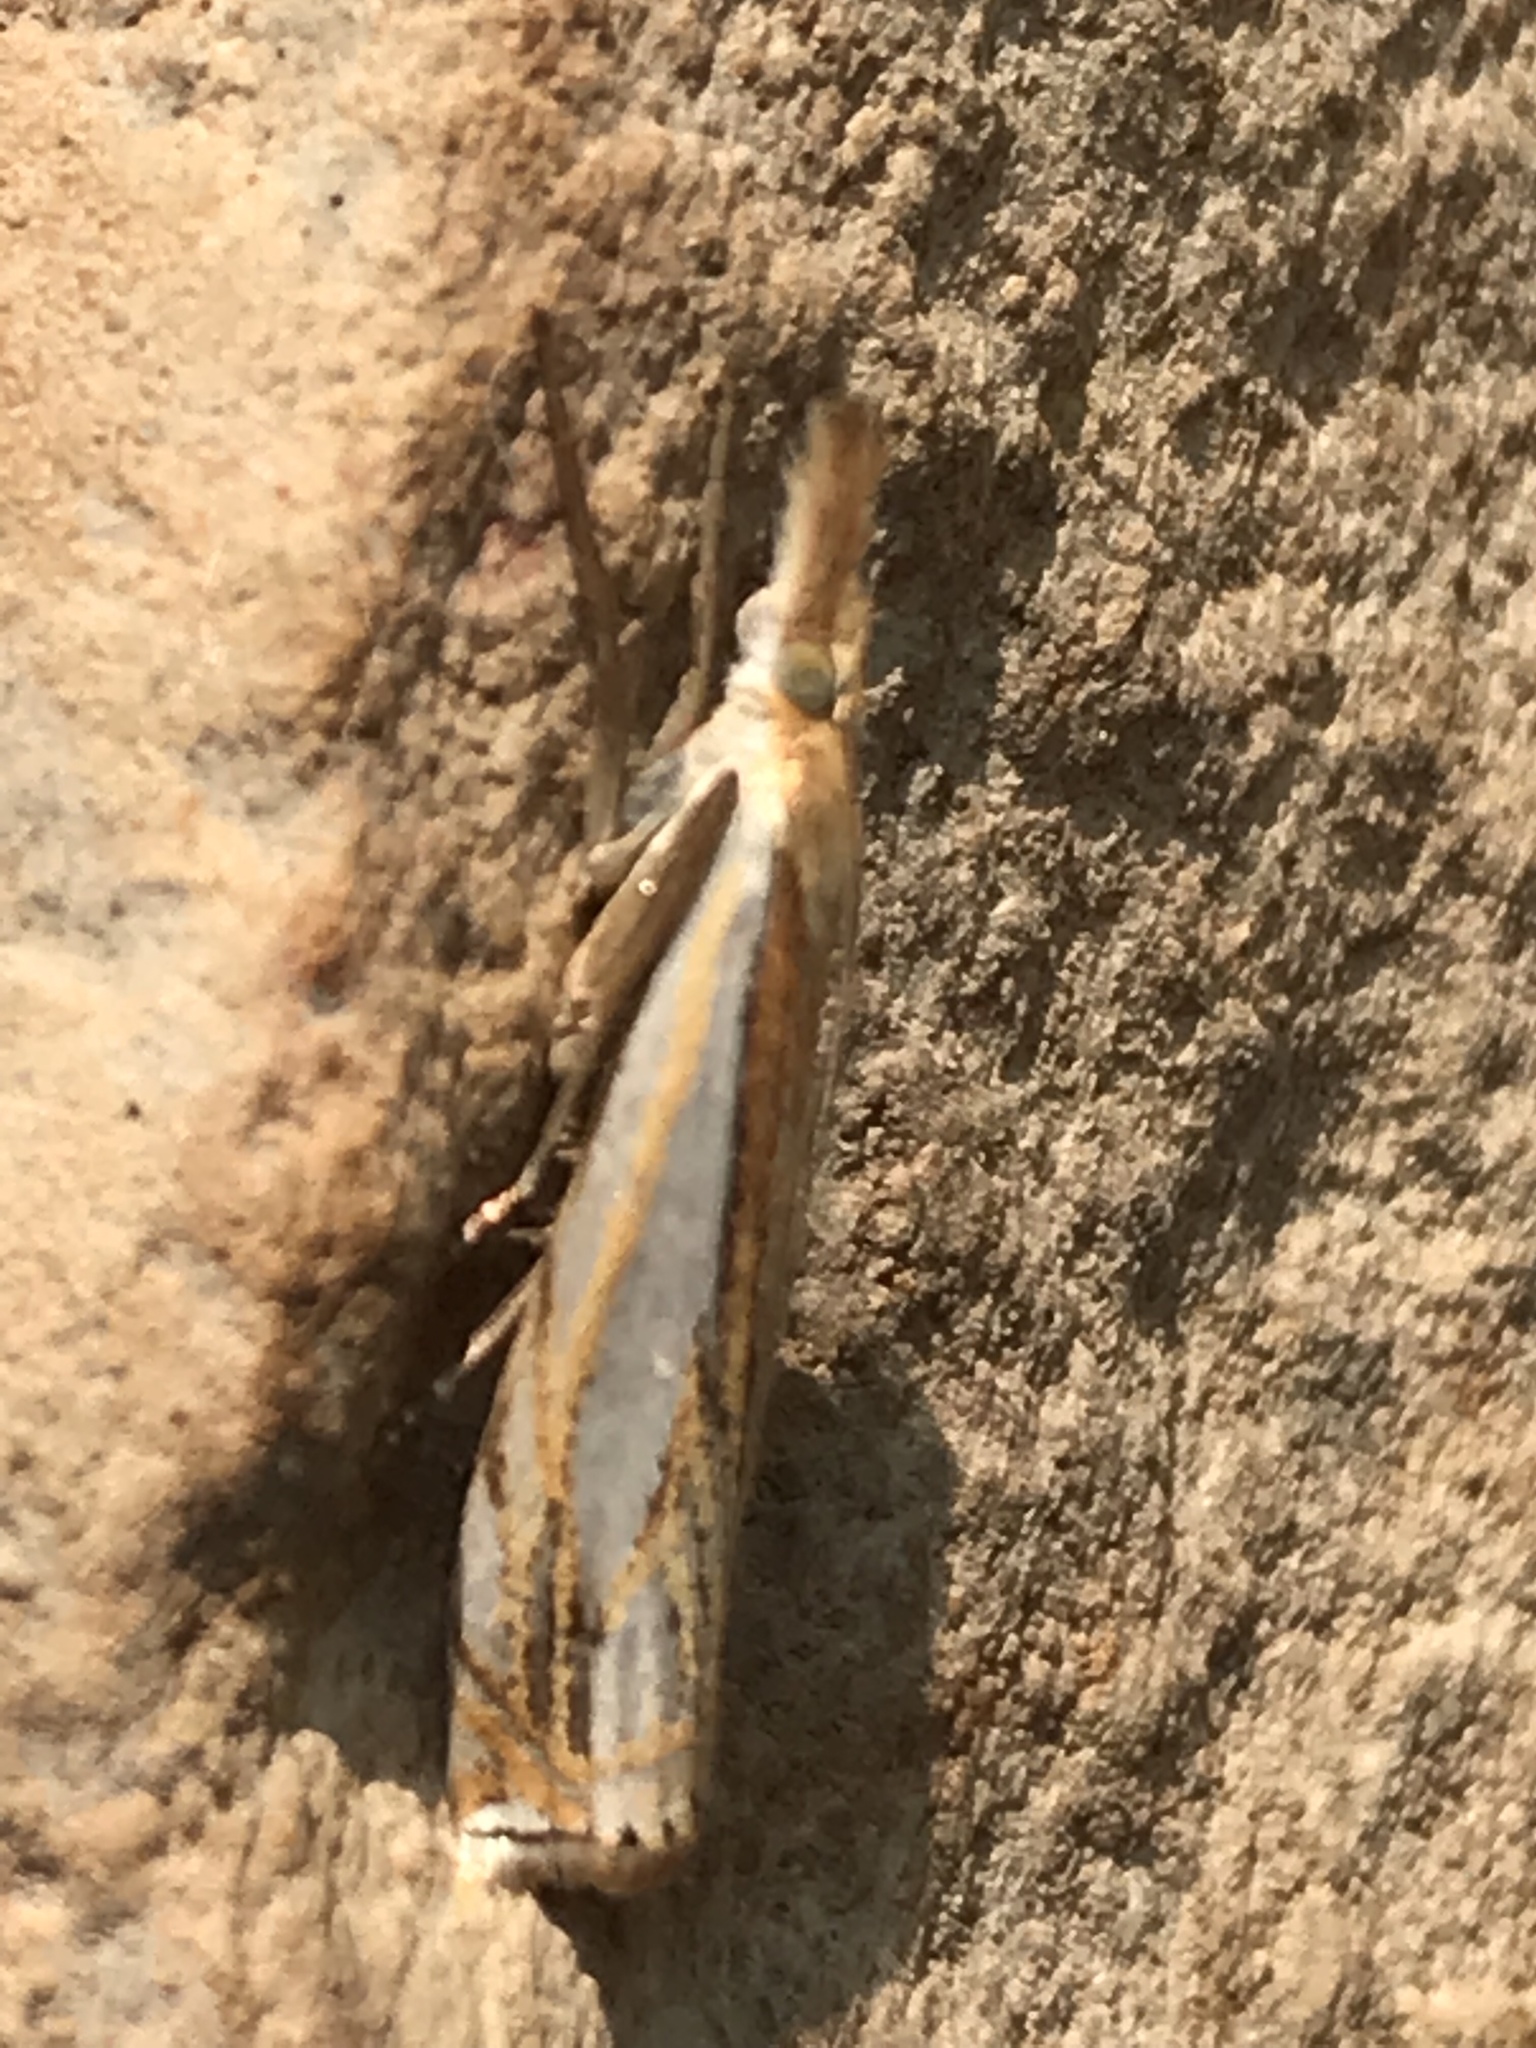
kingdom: Animalia
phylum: Arthropoda
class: Insecta
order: Lepidoptera
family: Crambidae
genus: Crambus
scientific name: Crambus agitatellus
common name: Double-banded grass-veneer
